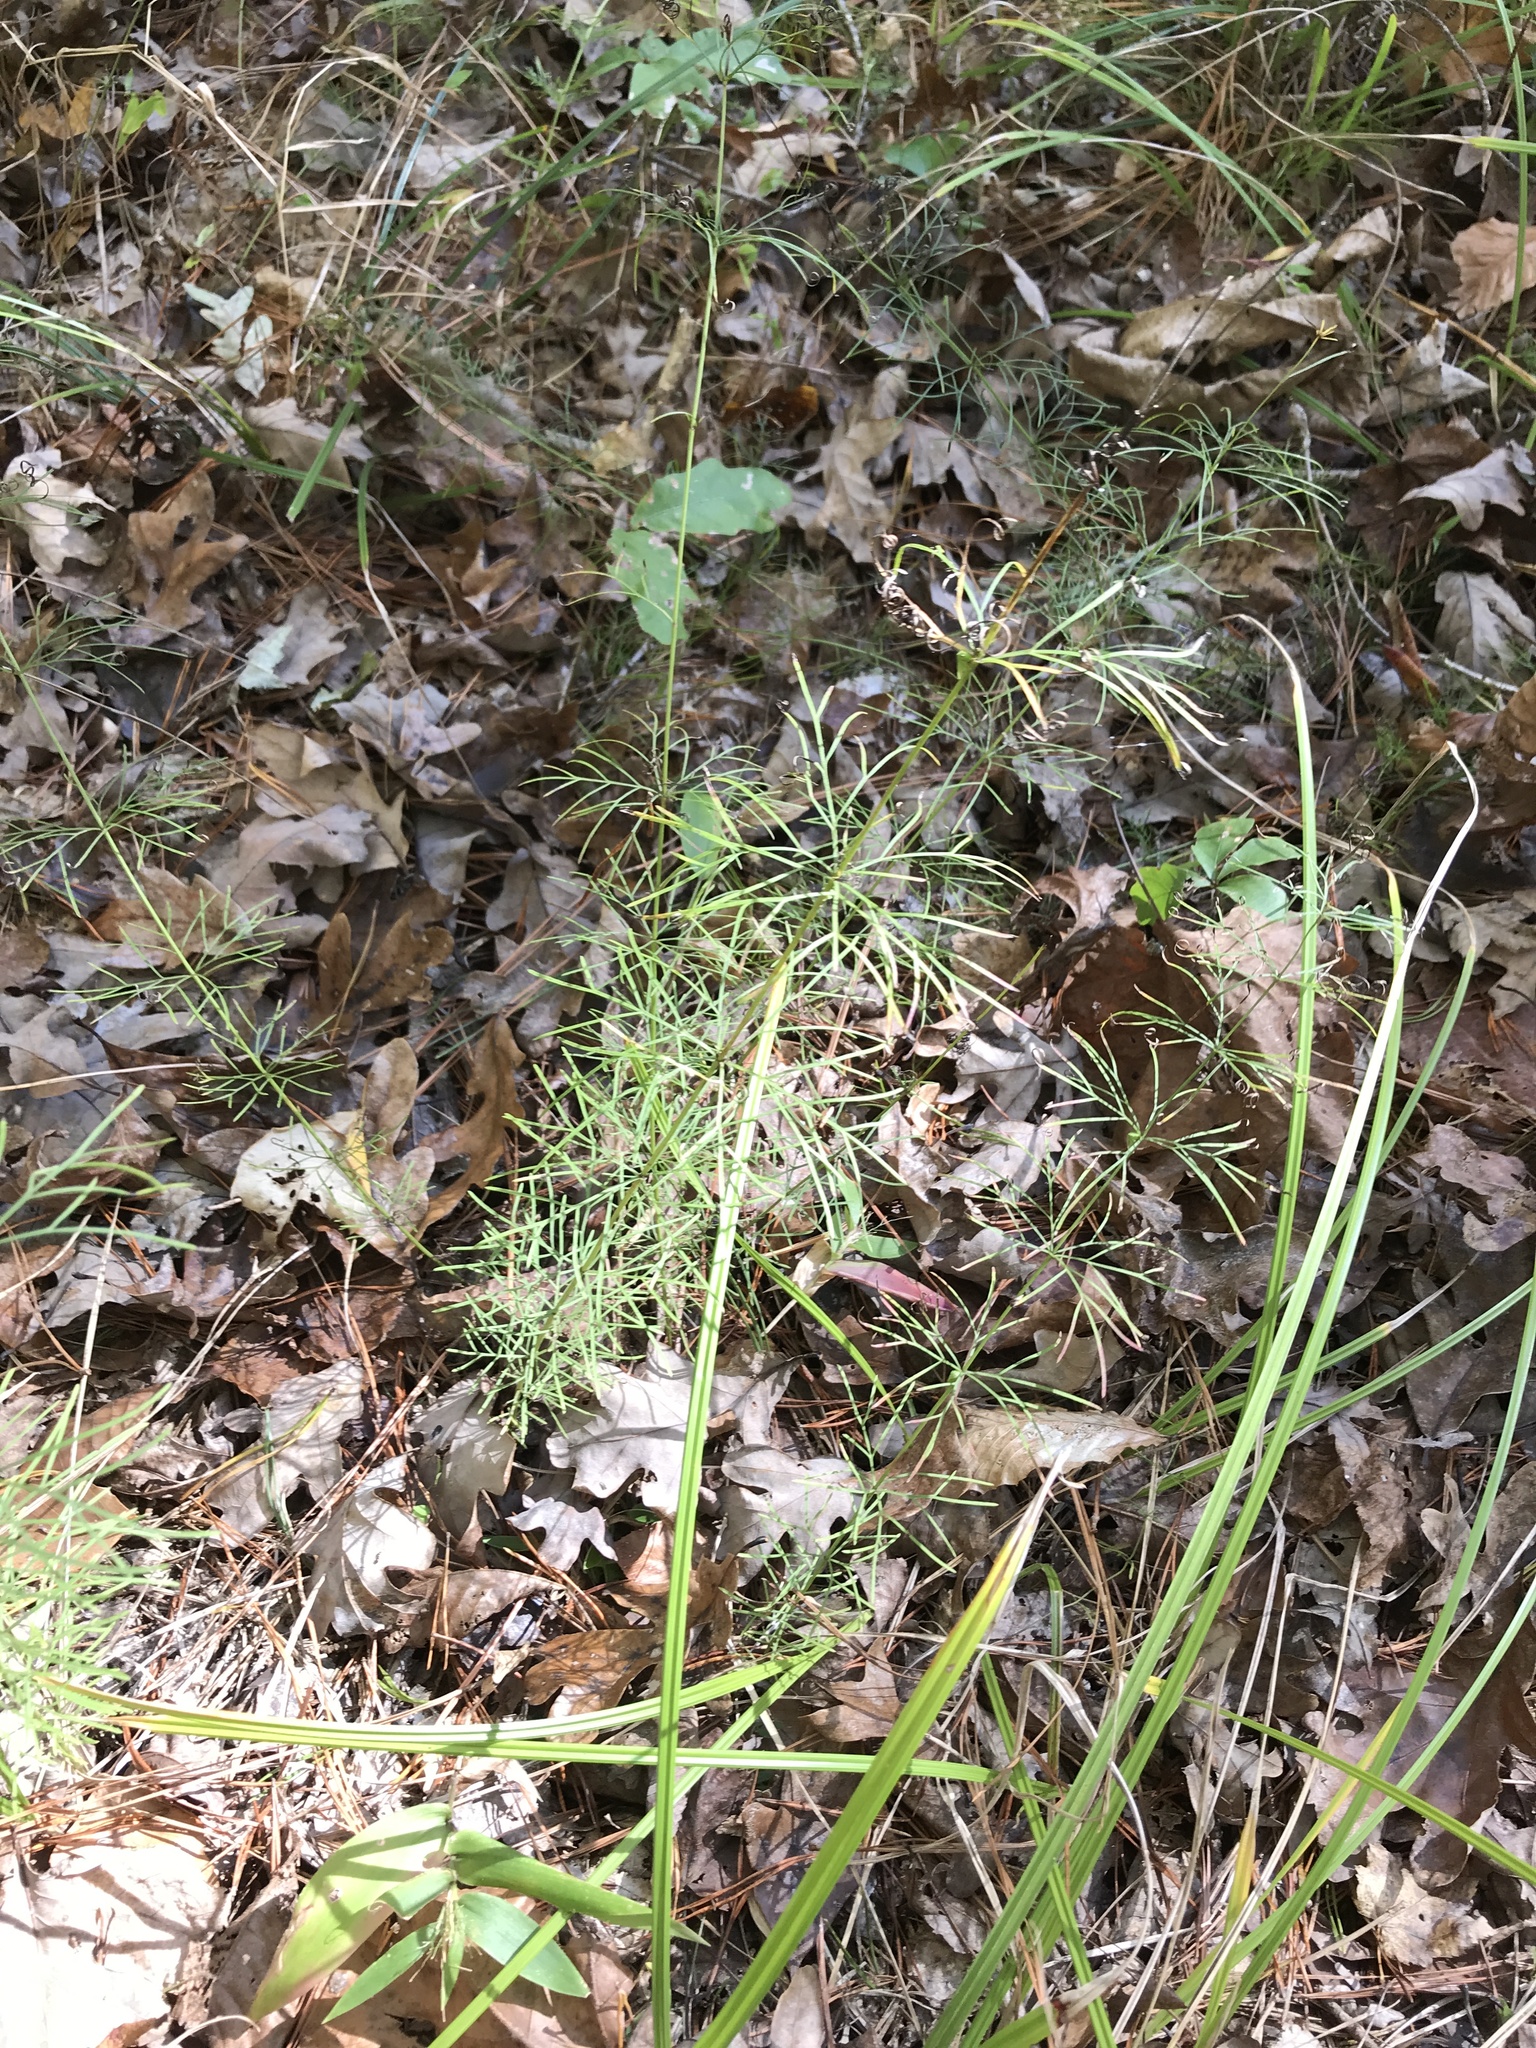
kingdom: Plantae
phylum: Tracheophyta
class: Magnoliopsida
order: Asterales
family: Asteraceae
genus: Coreopsis
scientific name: Coreopsis verticillata
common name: Whorled tickseed
